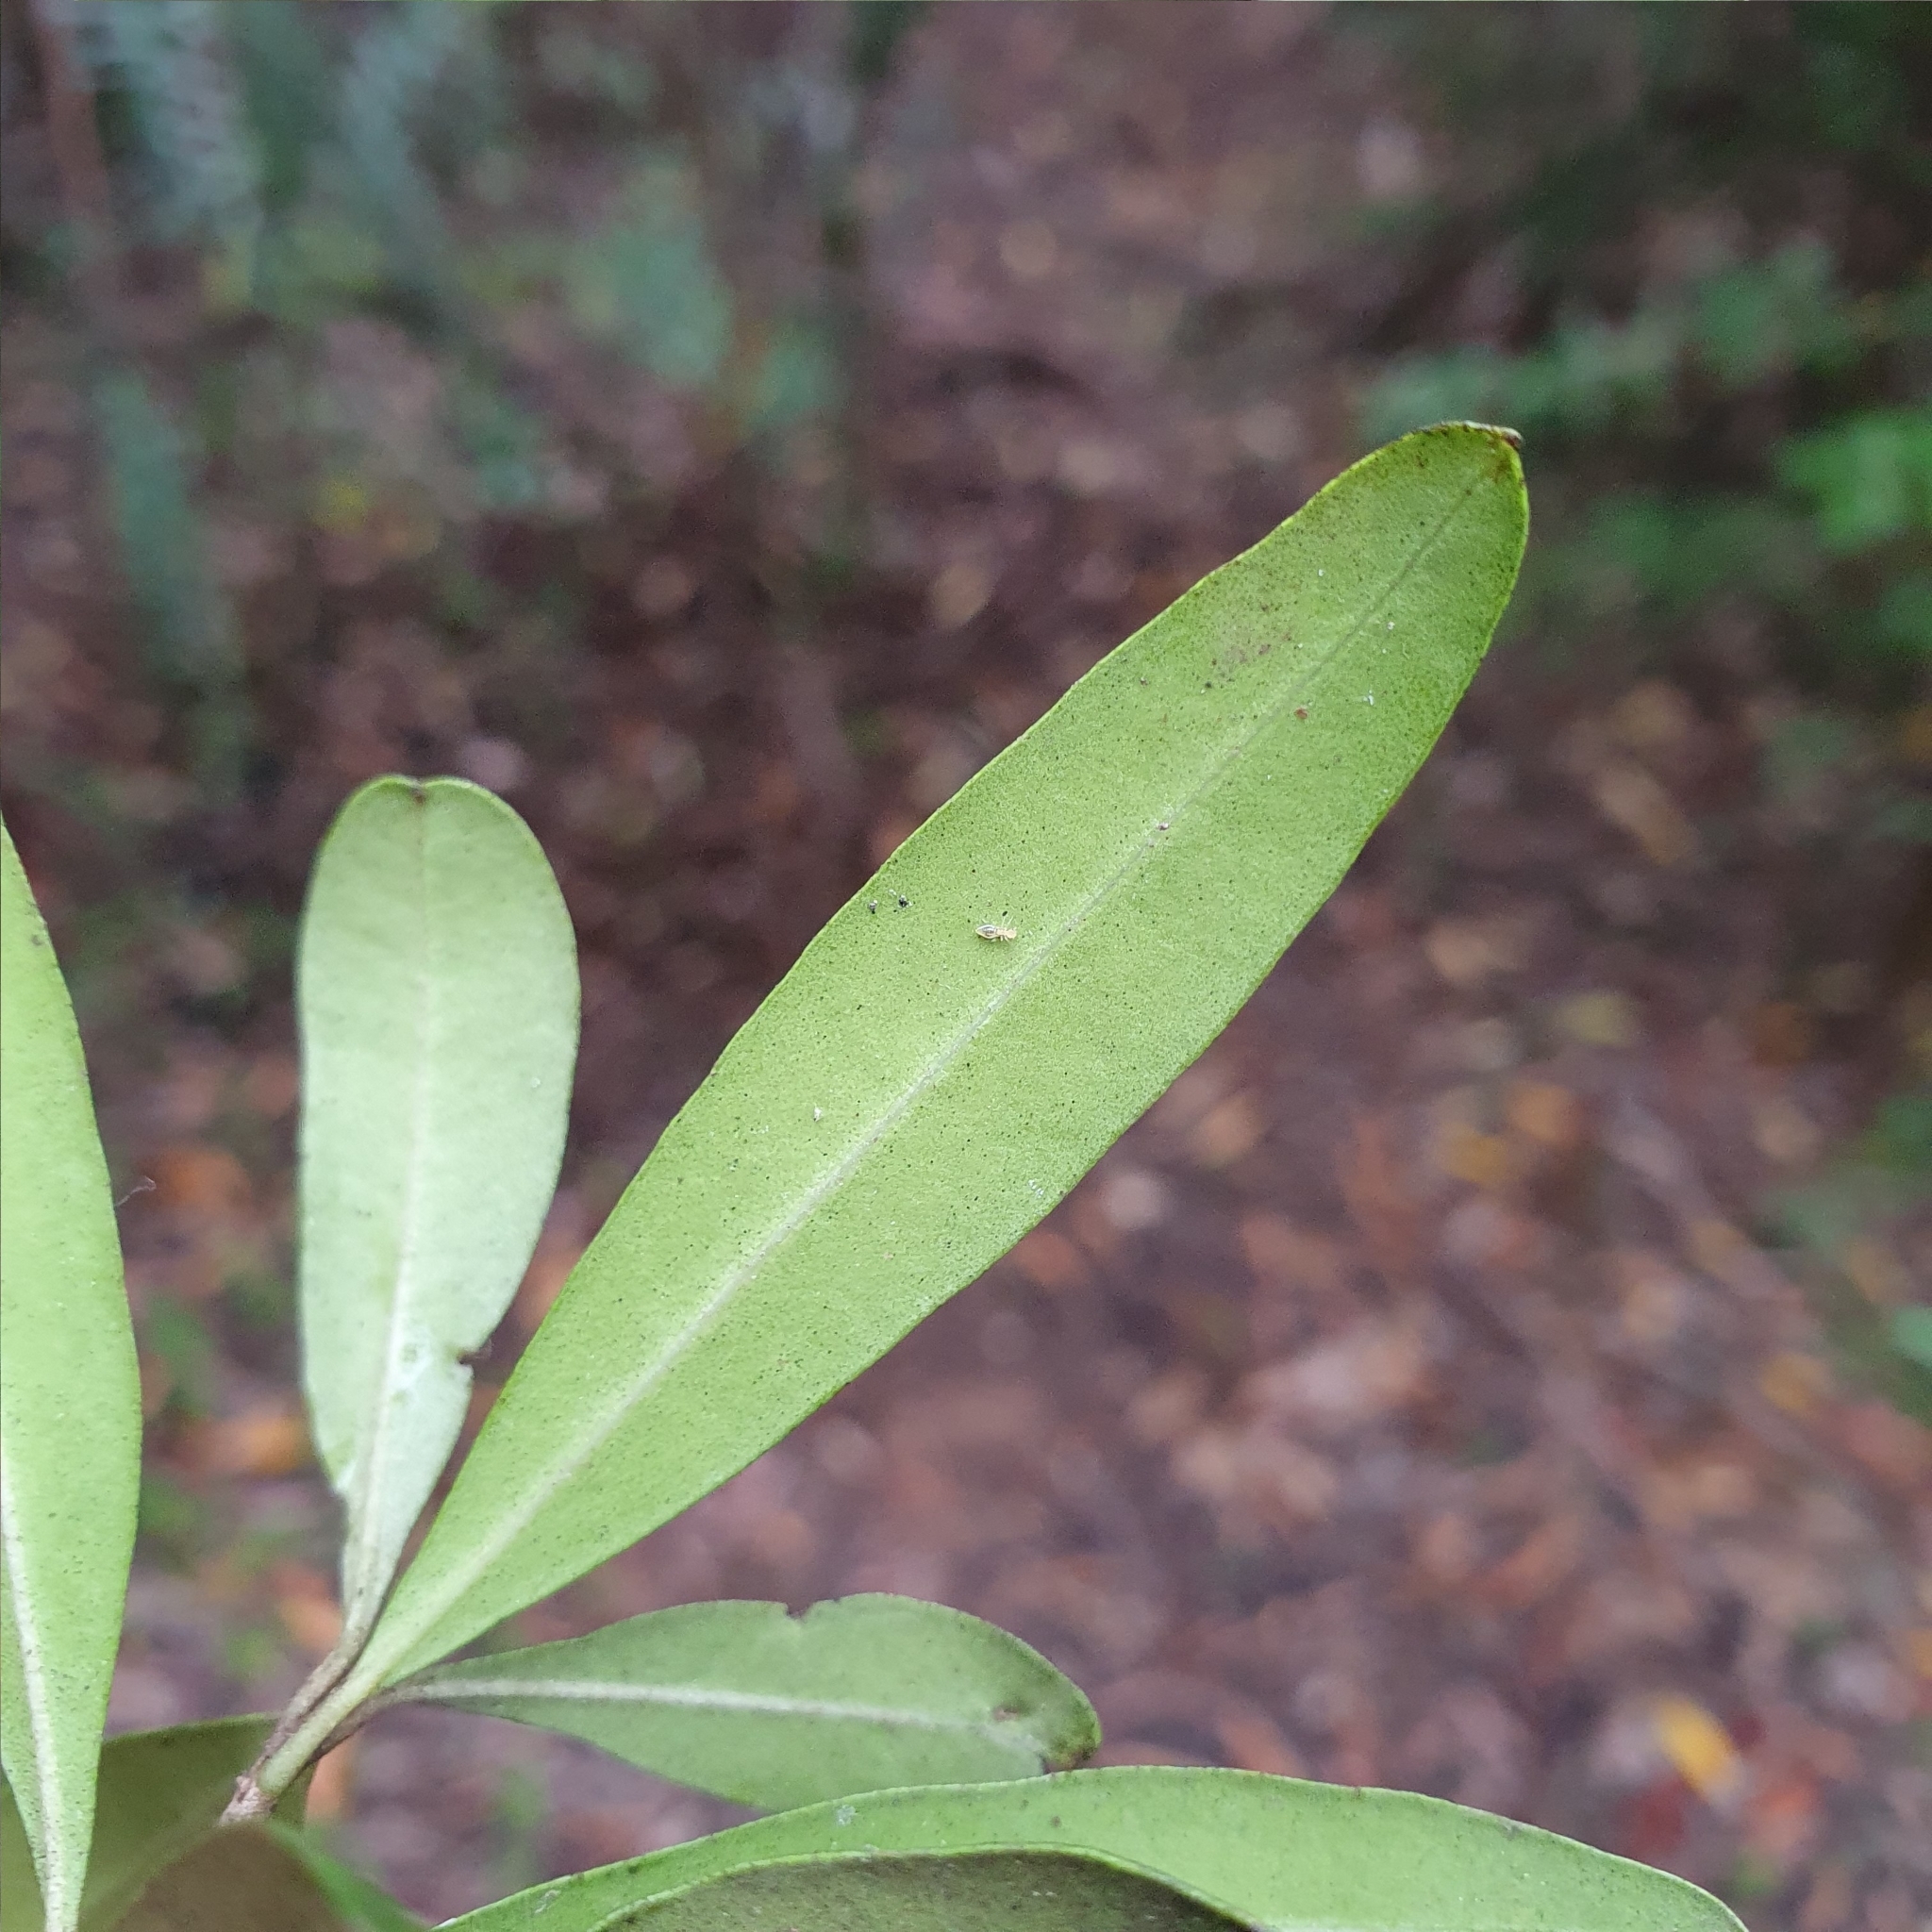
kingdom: Plantae
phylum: Tracheophyta
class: Magnoliopsida
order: Lamiales
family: Oleaceae
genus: Olea
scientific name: Olea europaea
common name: Olive
